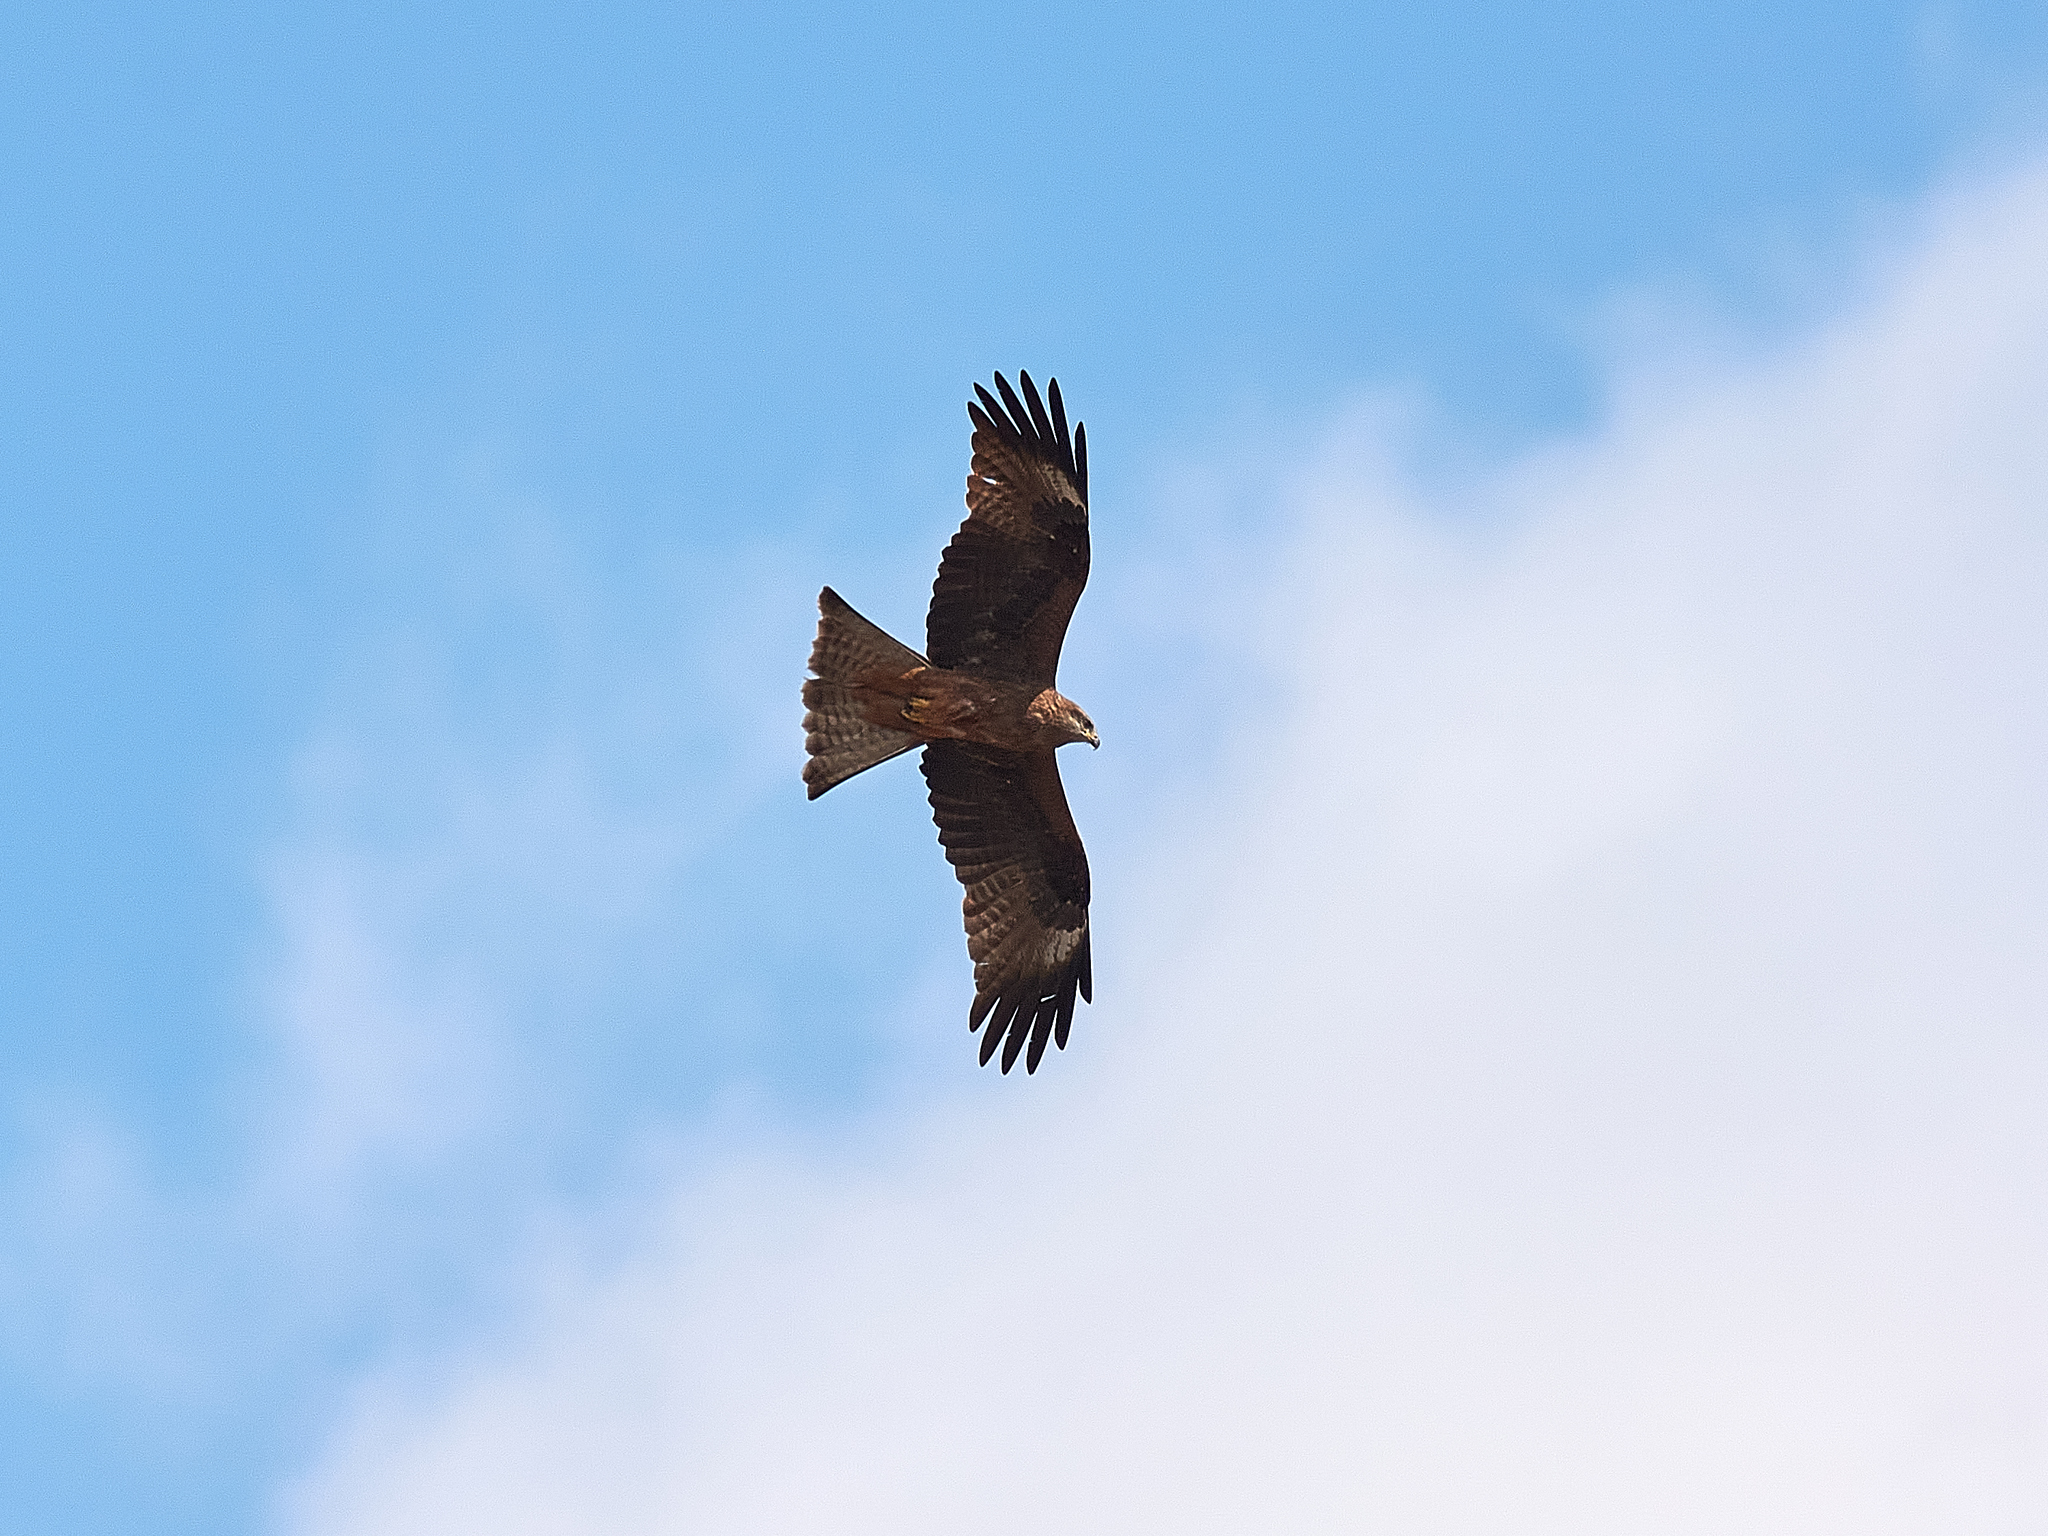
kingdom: Animalia
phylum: Chordata
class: Aves
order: Accipitriformes
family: Accipitridae
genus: Milvus
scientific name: Milvus migrans
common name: Black kite
